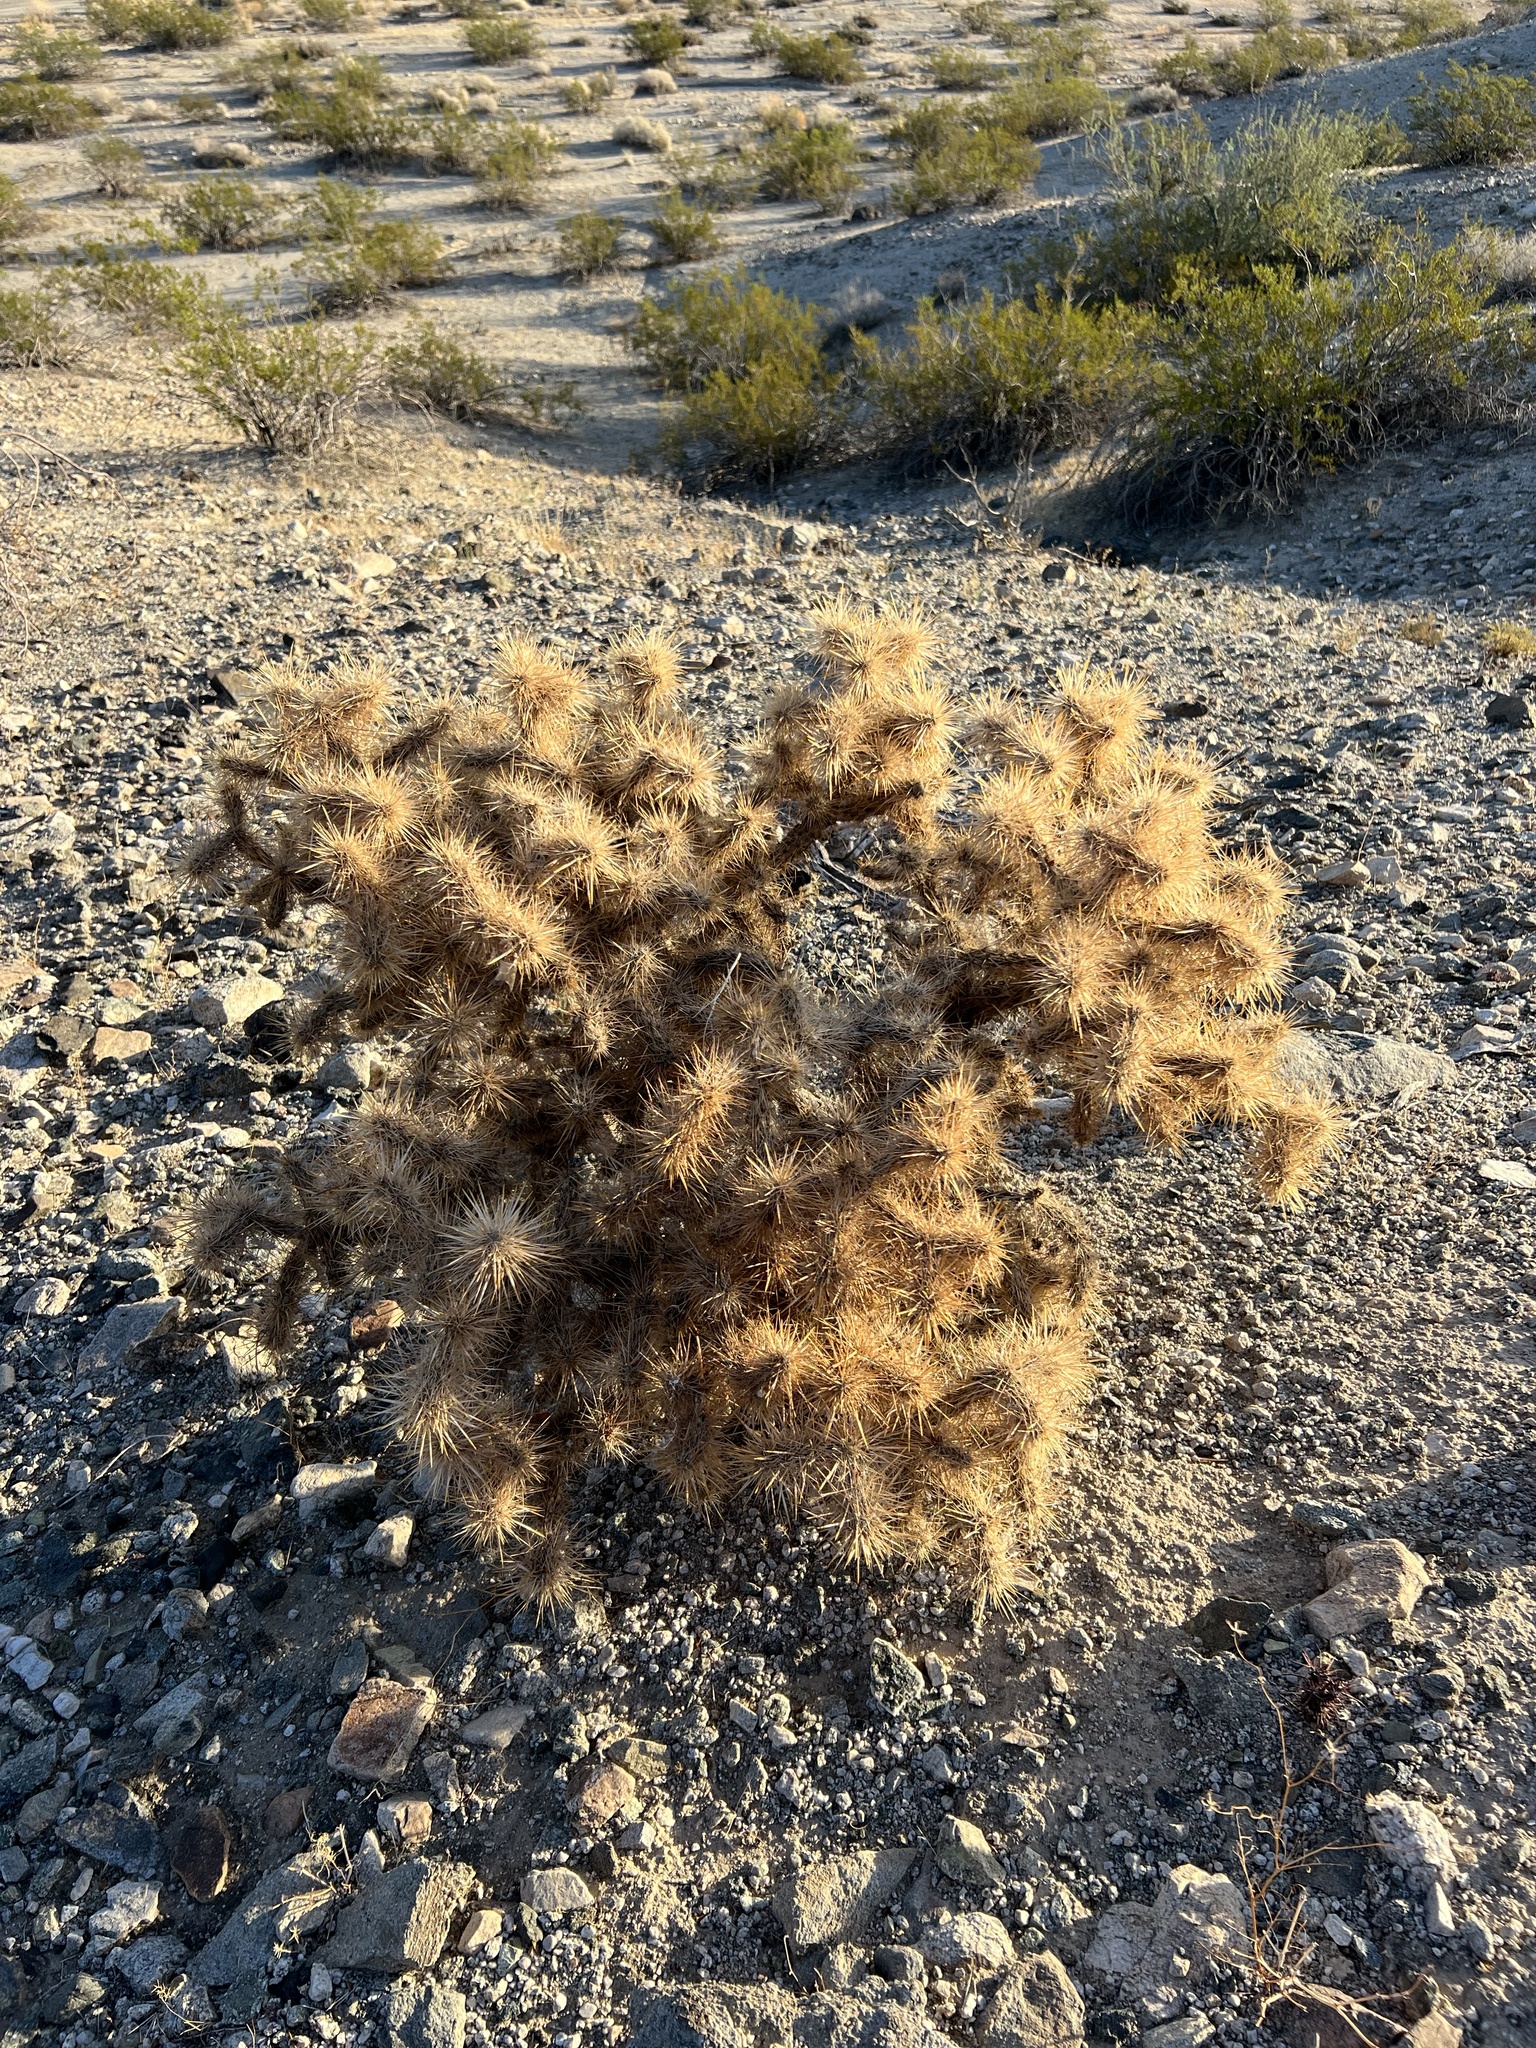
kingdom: Plantae
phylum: Tracheophyta
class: Magnoliopsida
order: Caryophyllales
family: Cactaceae
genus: Cylindropuntia
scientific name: Cylindropuntia echinocarpa
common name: Ground cholla
